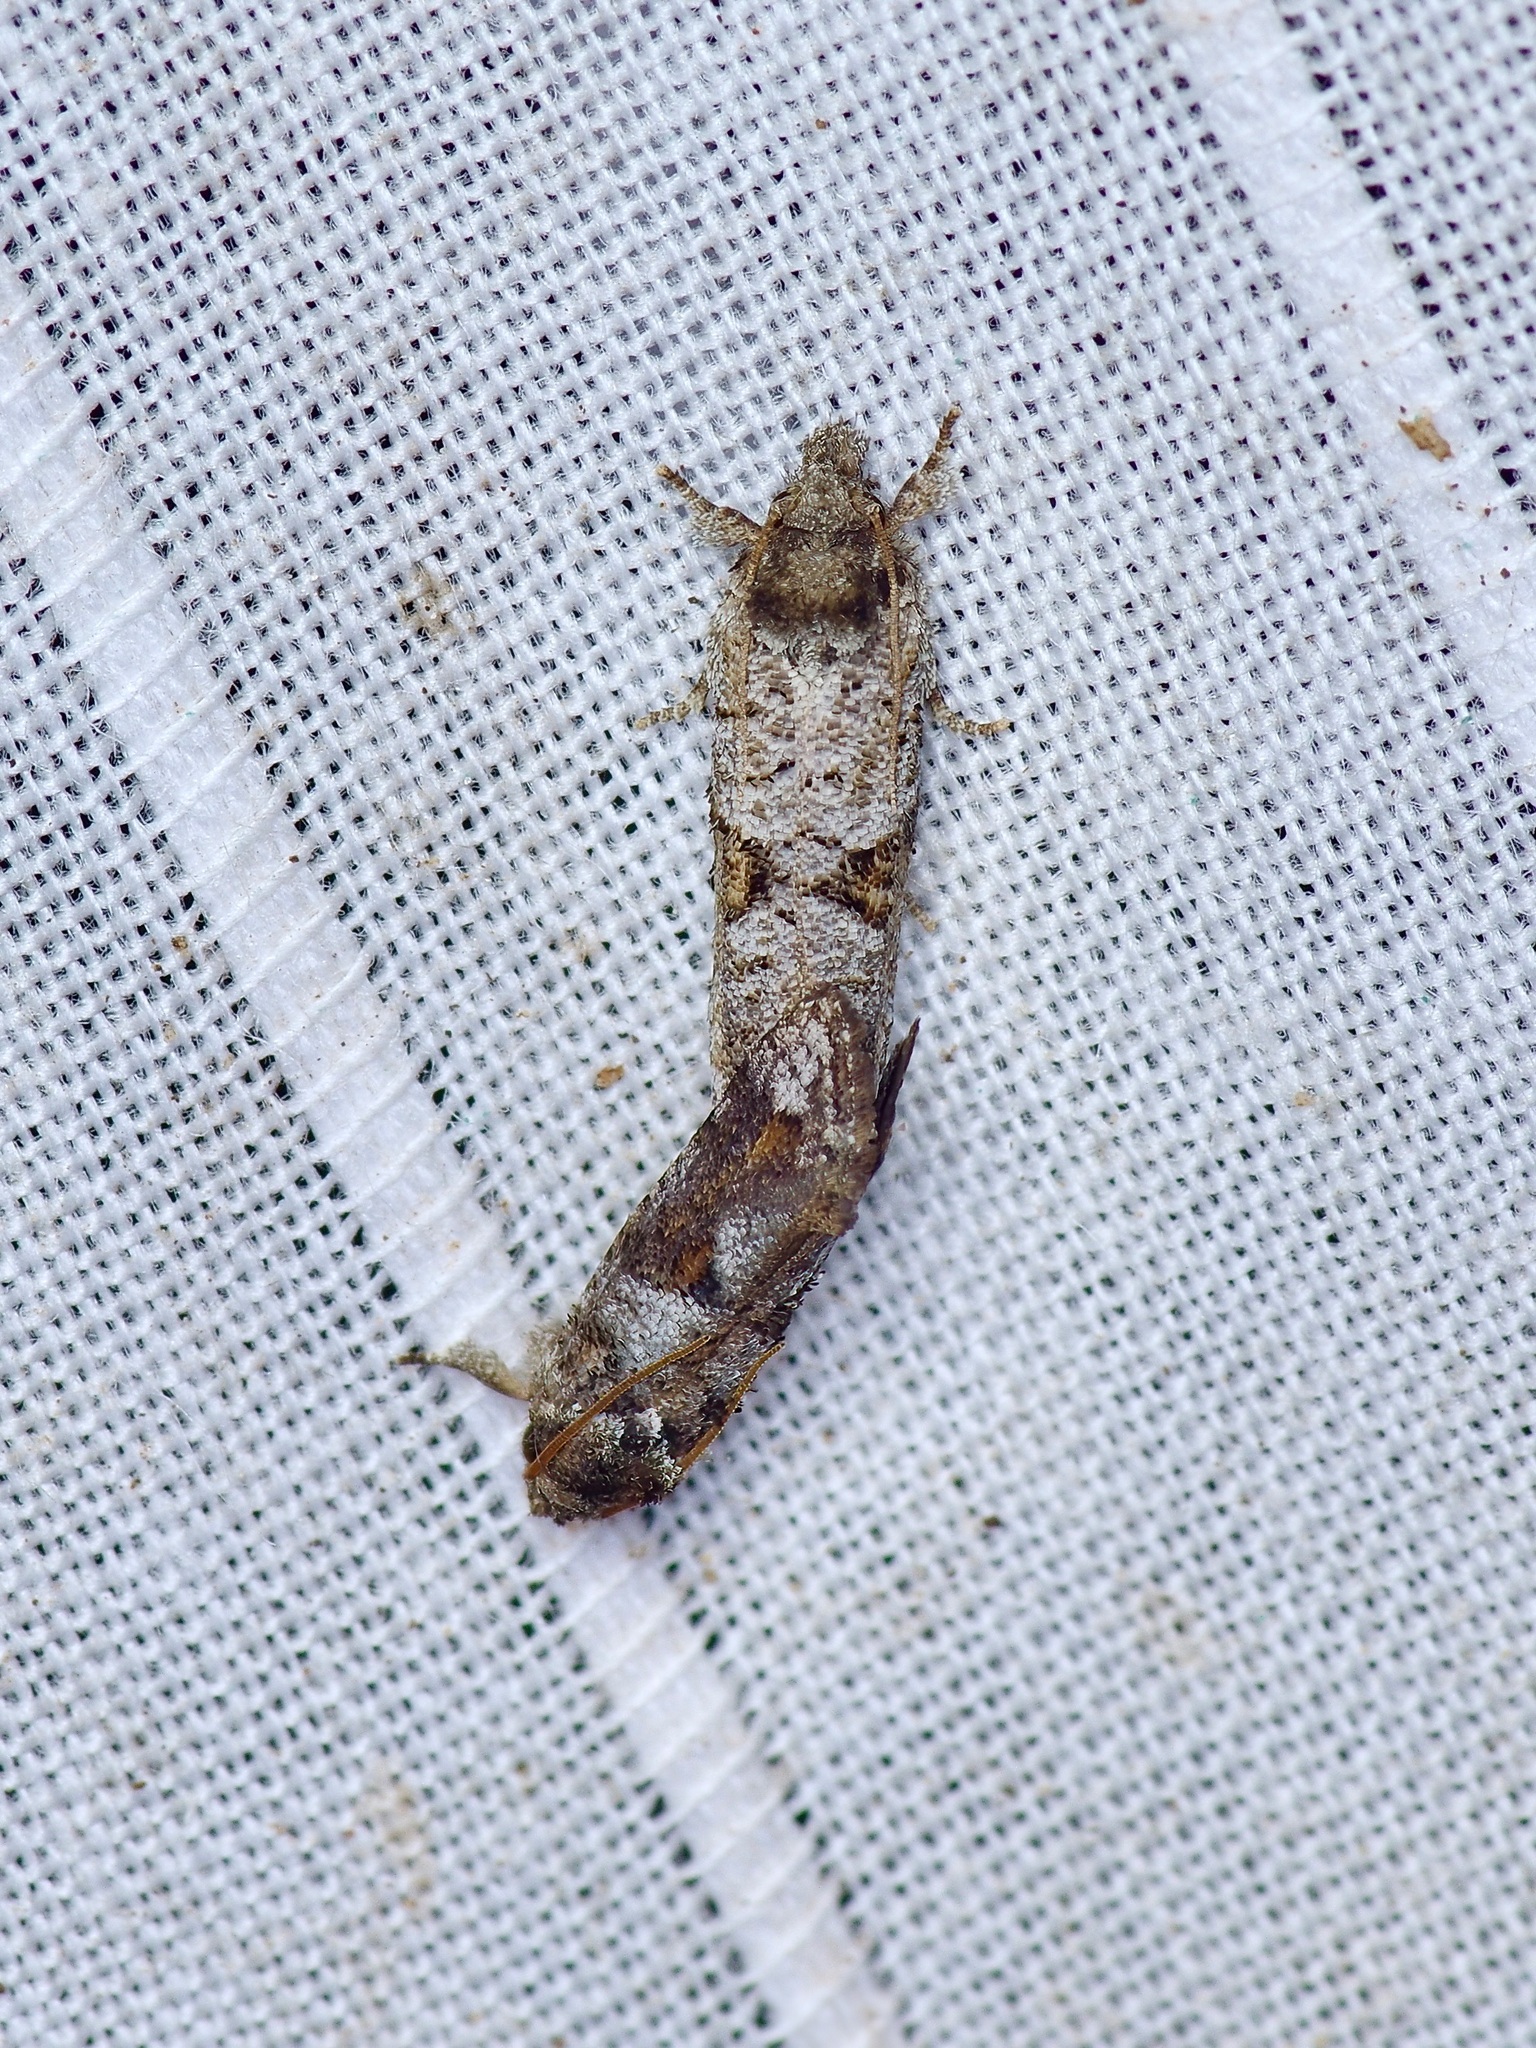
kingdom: Animalia
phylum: Arthropoda
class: Insecta
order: Lepidoptera
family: Tineidae
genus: Acrolophus
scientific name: Acrolophus piger
